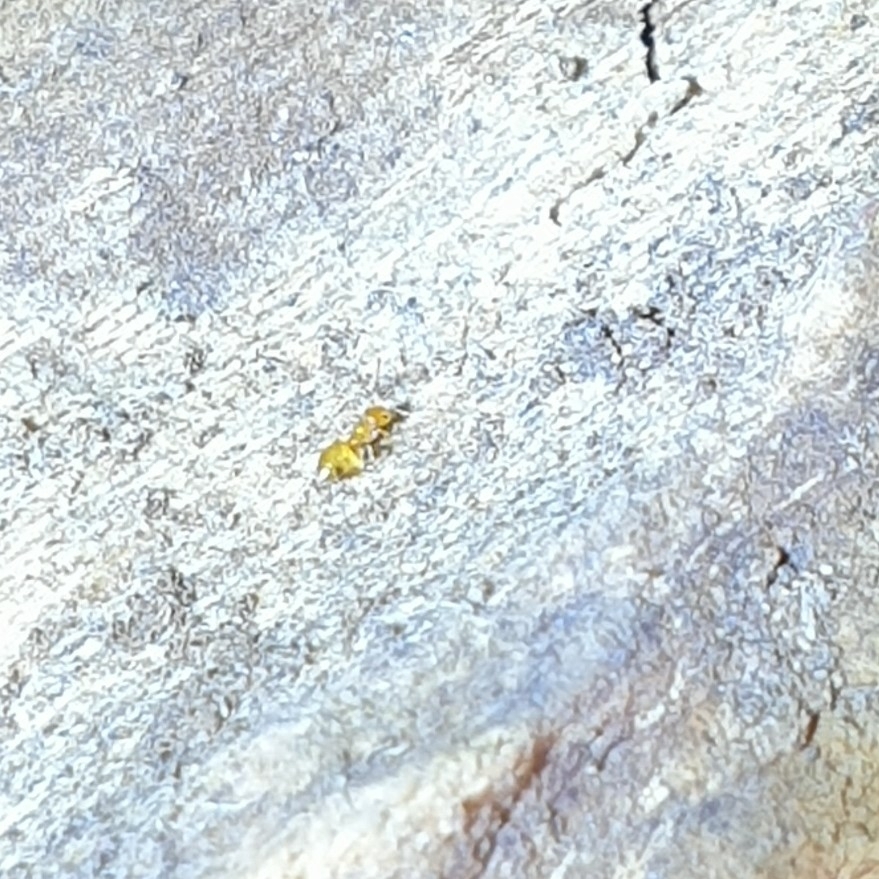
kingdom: Animalia
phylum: Arthropoda
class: Insecta
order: Hymenoptera
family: Formicidae
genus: Plagiolepis
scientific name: Plagiolepis alluaudi
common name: Little yellow ant
